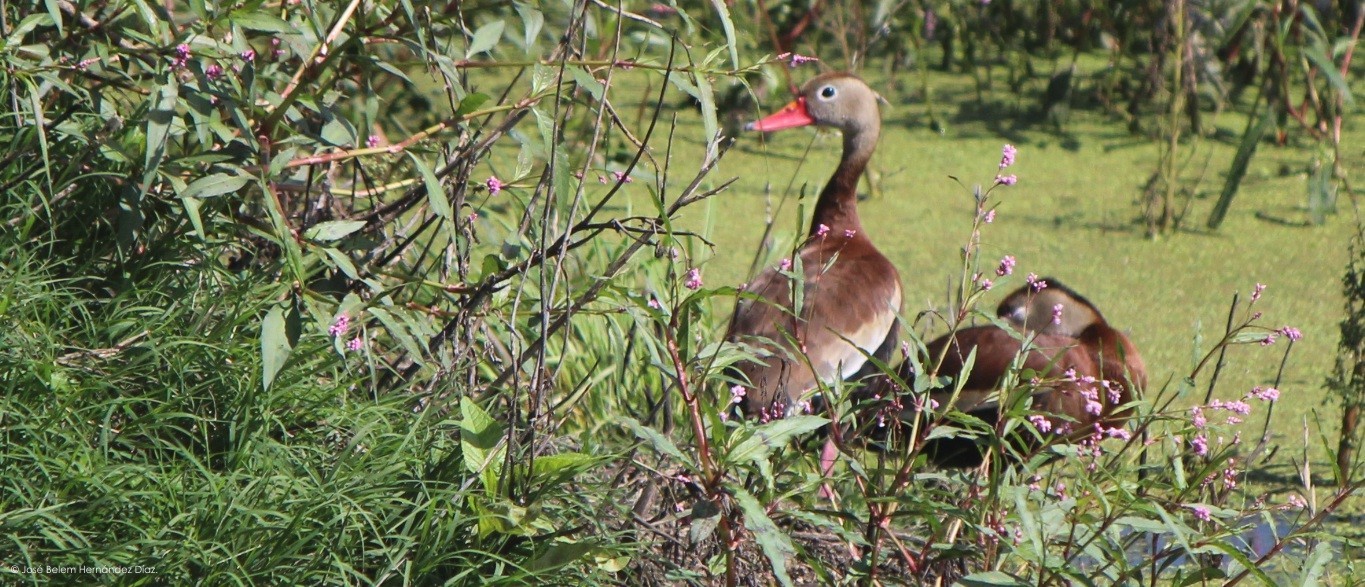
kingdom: Animalia
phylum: Chordata
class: Aves
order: Anseriformes
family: Anatidae
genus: Dendrocygna
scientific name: Dendrocygna autumnalis
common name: Black-bellied whistling duck
